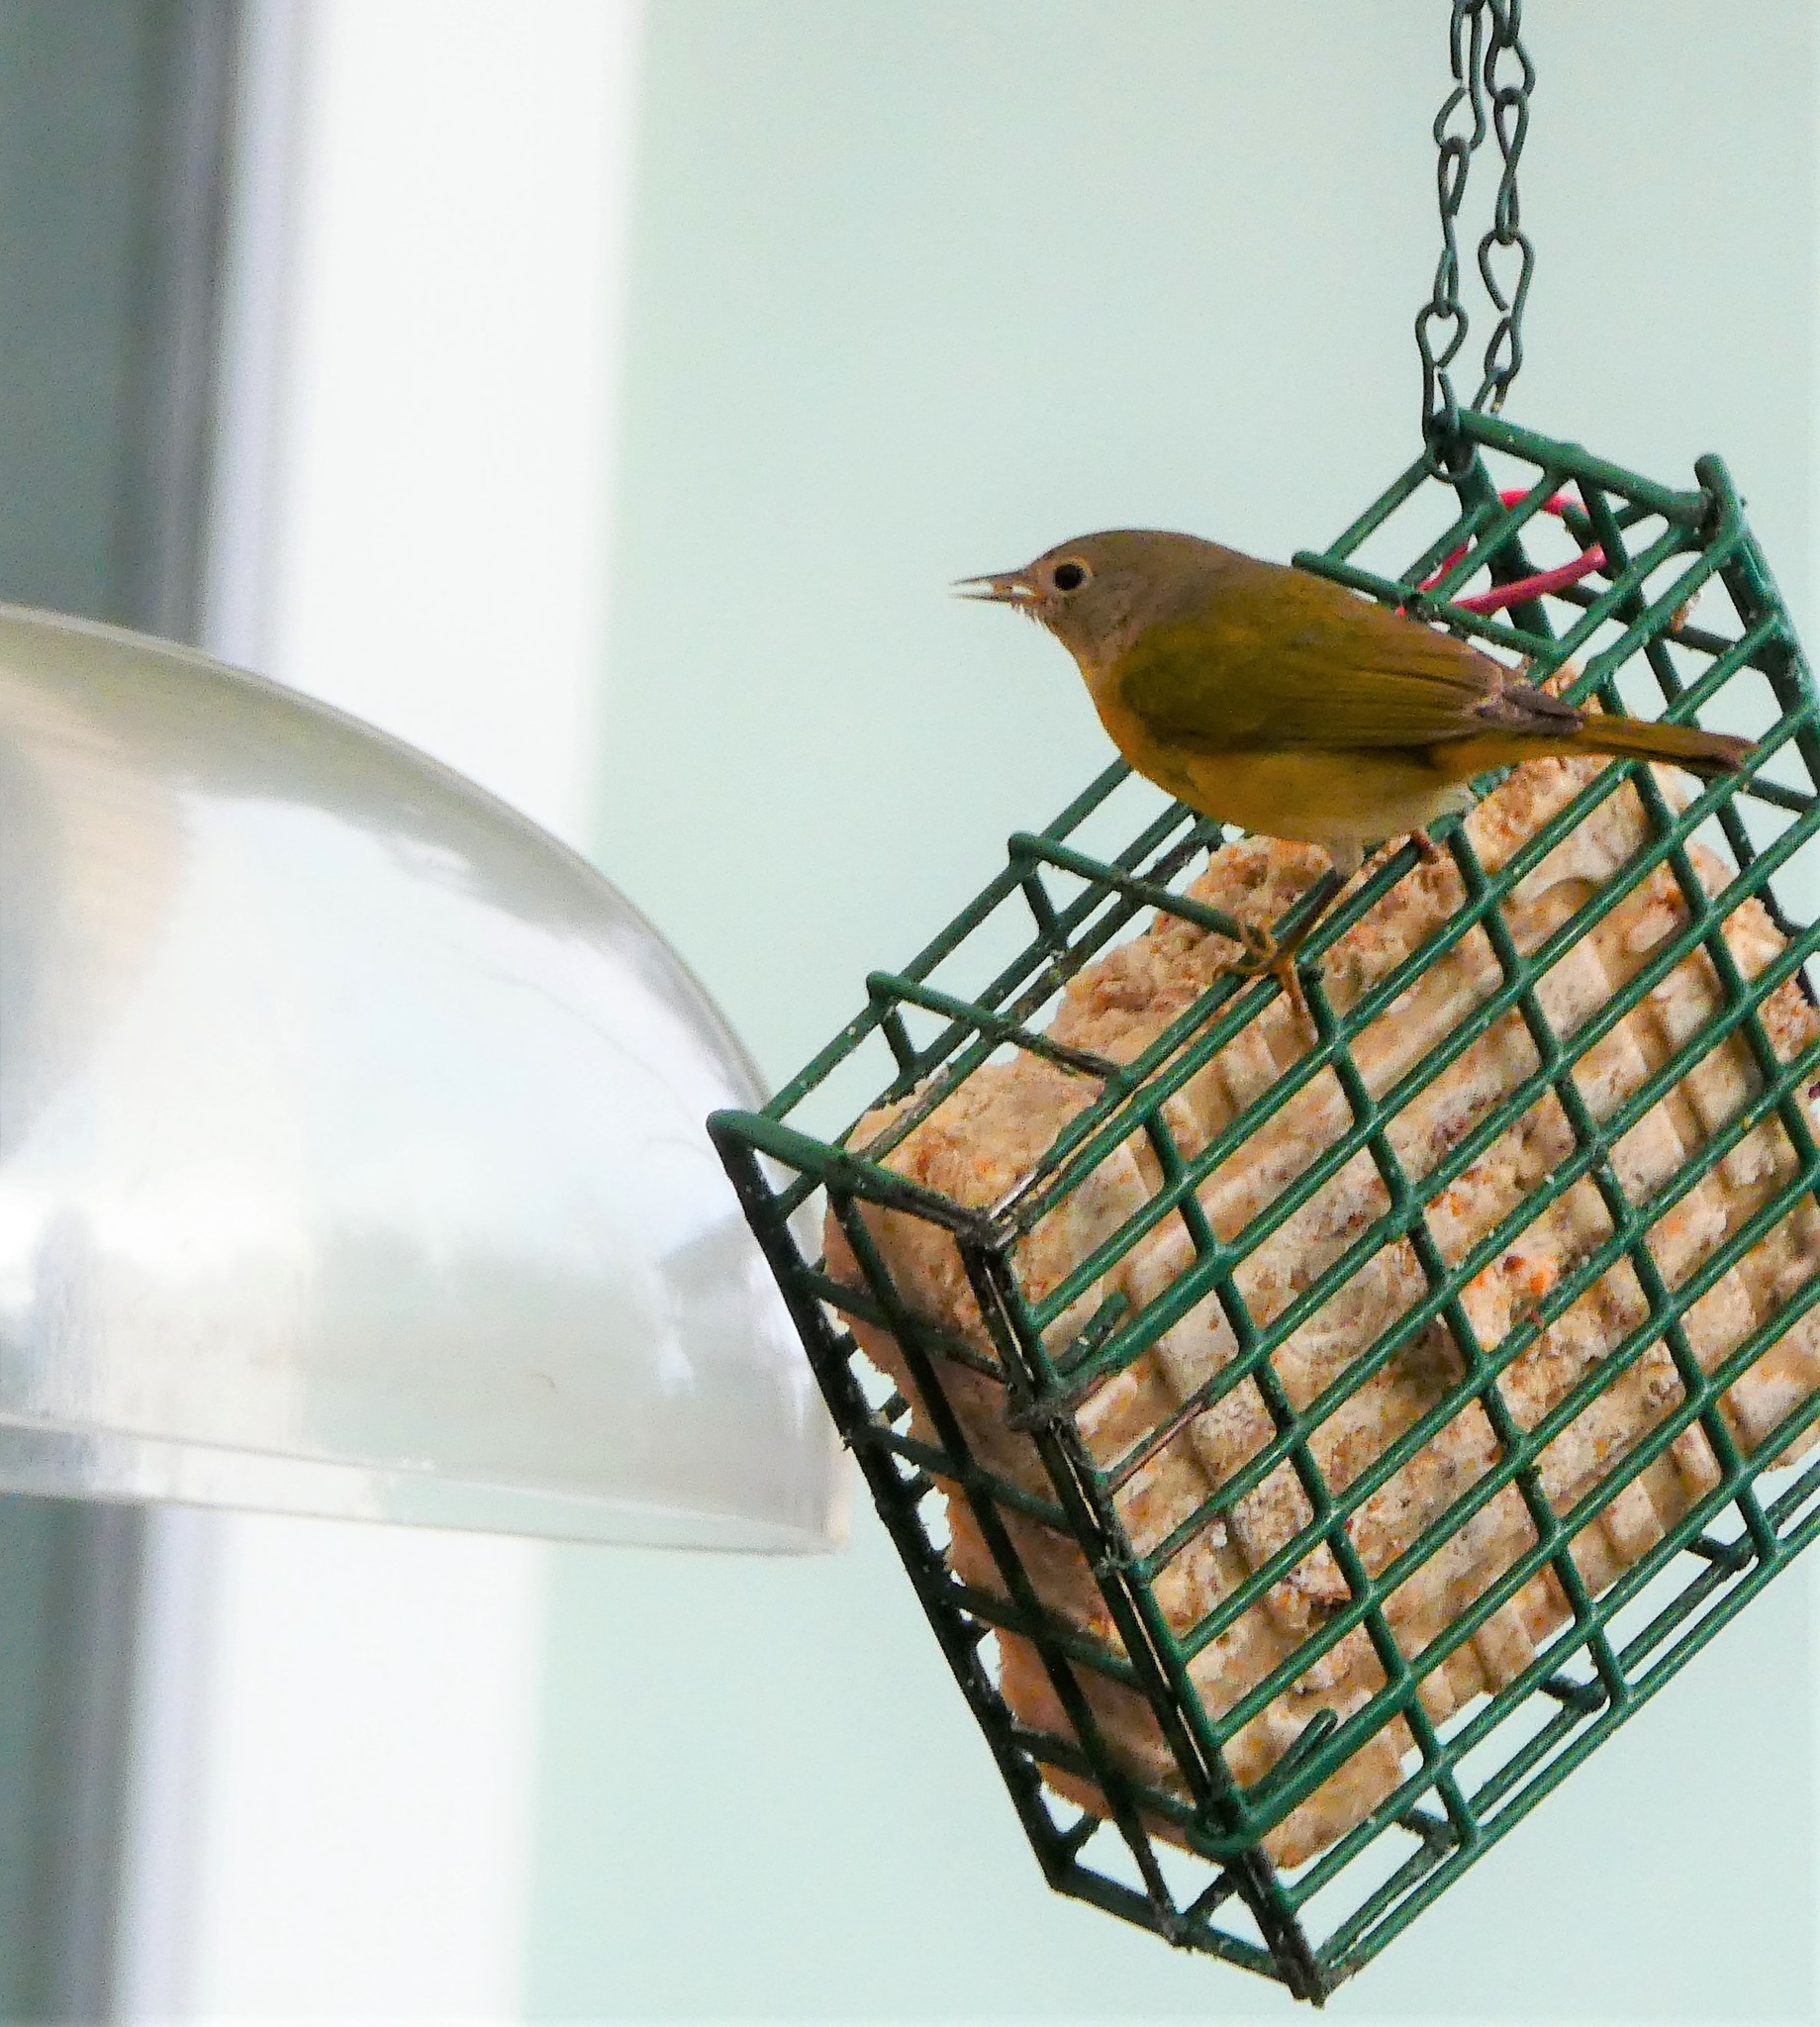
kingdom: Animalia
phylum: Chordata
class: Aves
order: Passeriformes
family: Parulidae
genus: Leiothlypis
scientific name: Leiothlypis ruficapilla
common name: Nashville warbler
